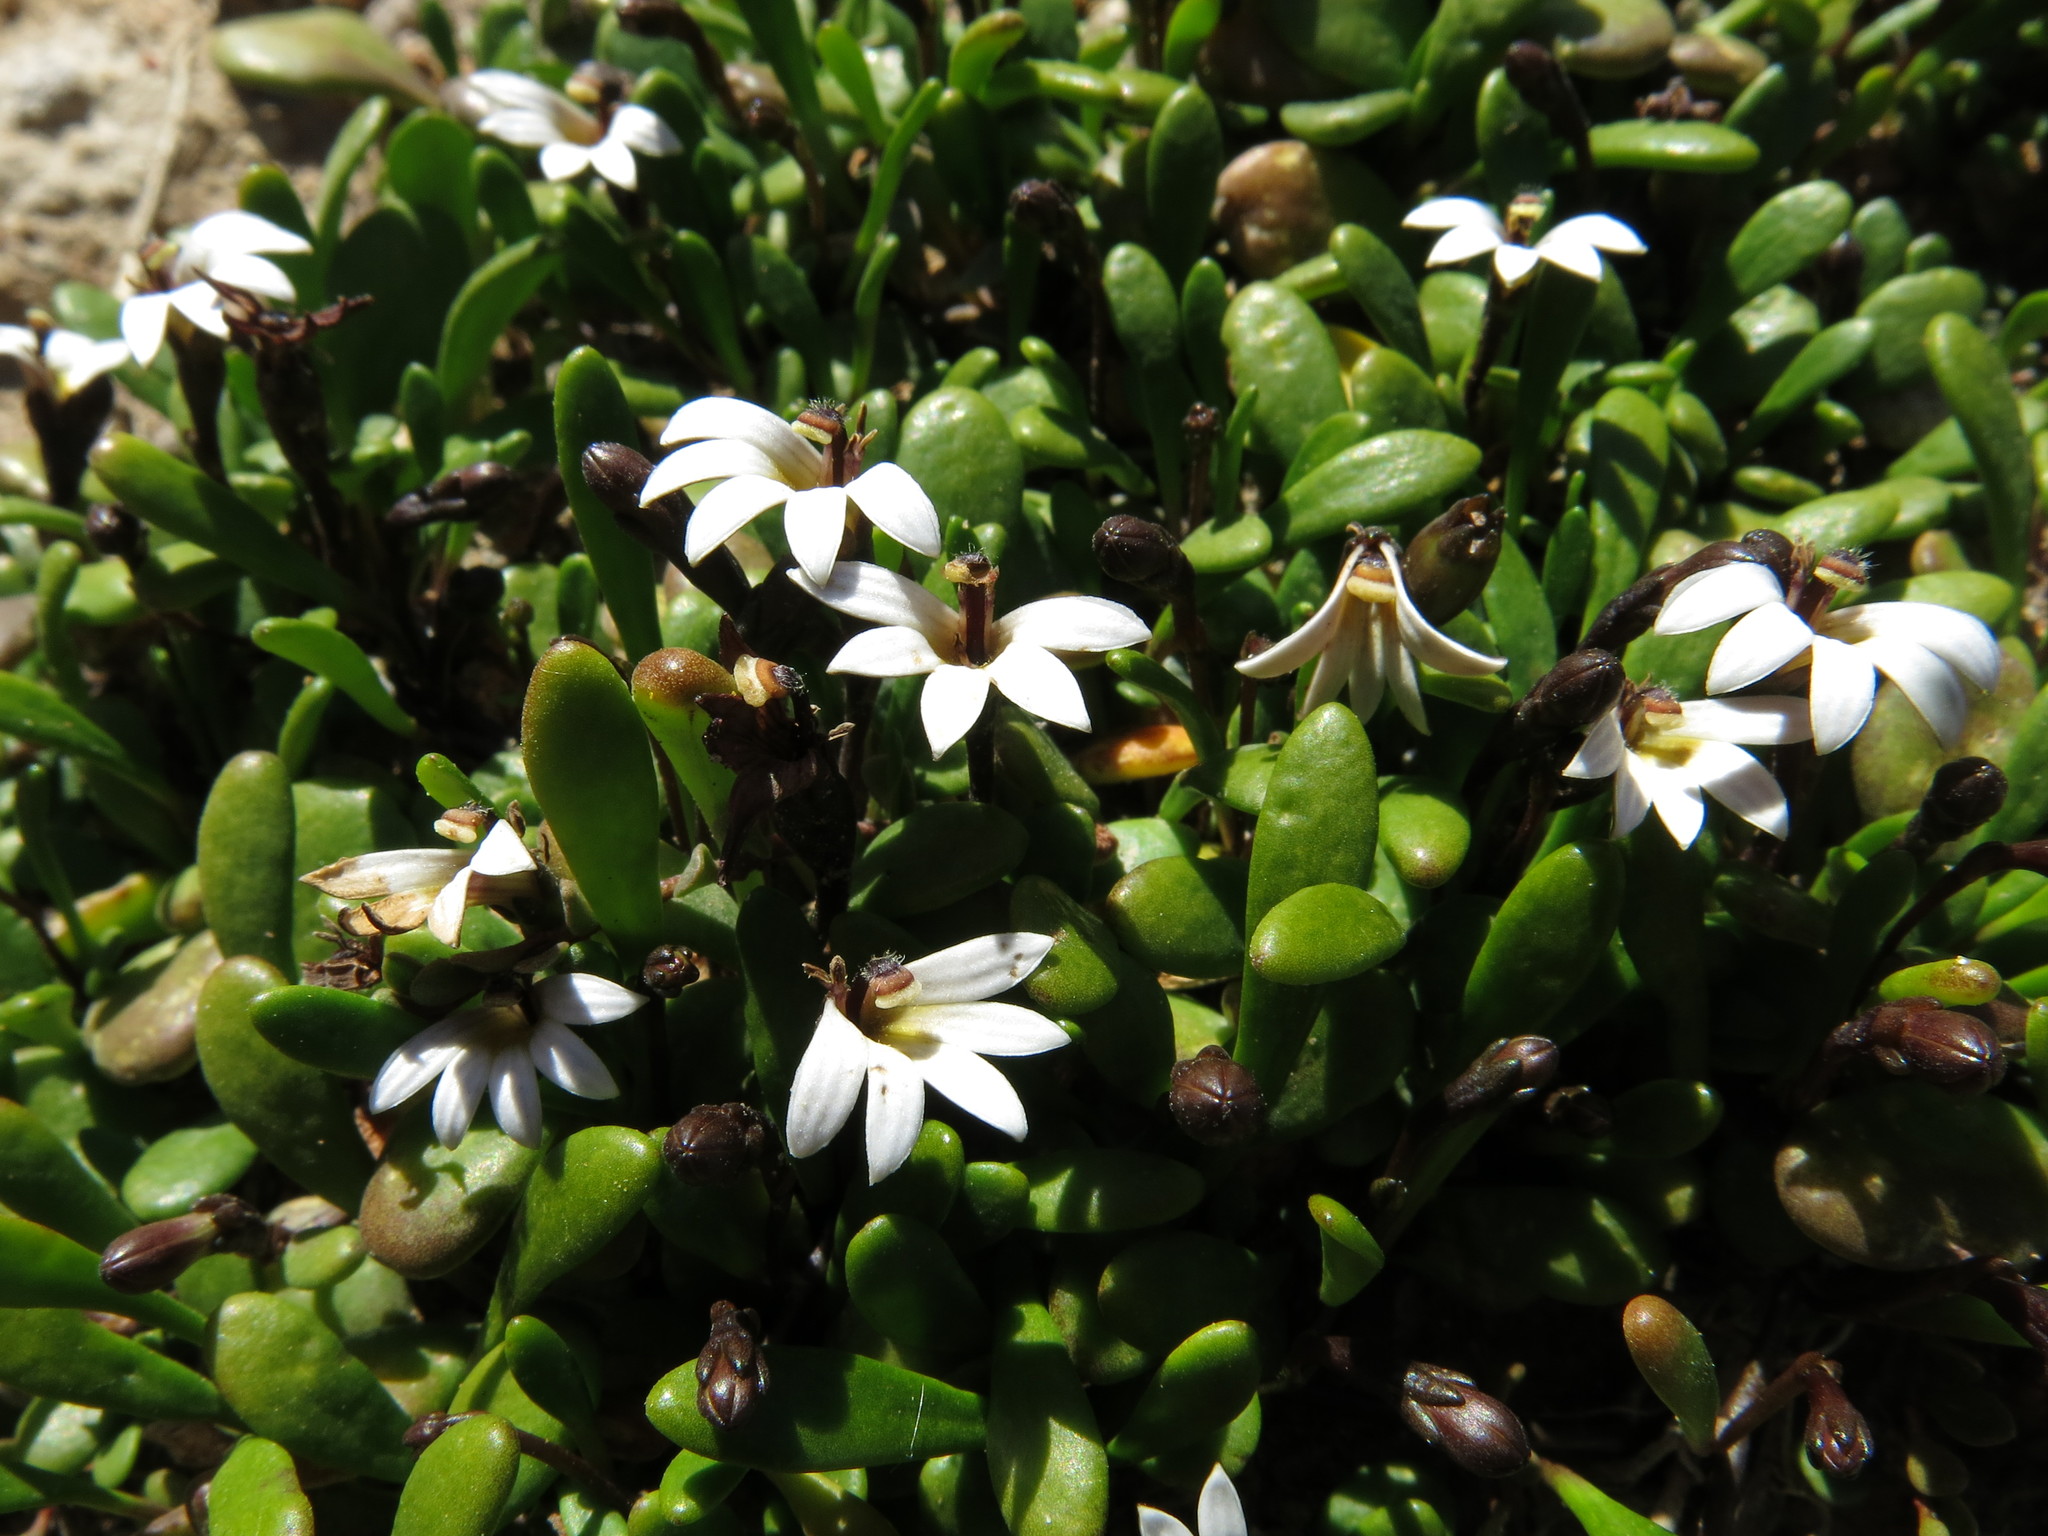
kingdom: Plantae
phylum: Tracheophyta
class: Magnoliopsida
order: Asterales
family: Goodeniaceae
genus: Goodenia
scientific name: Goodenia radicans
